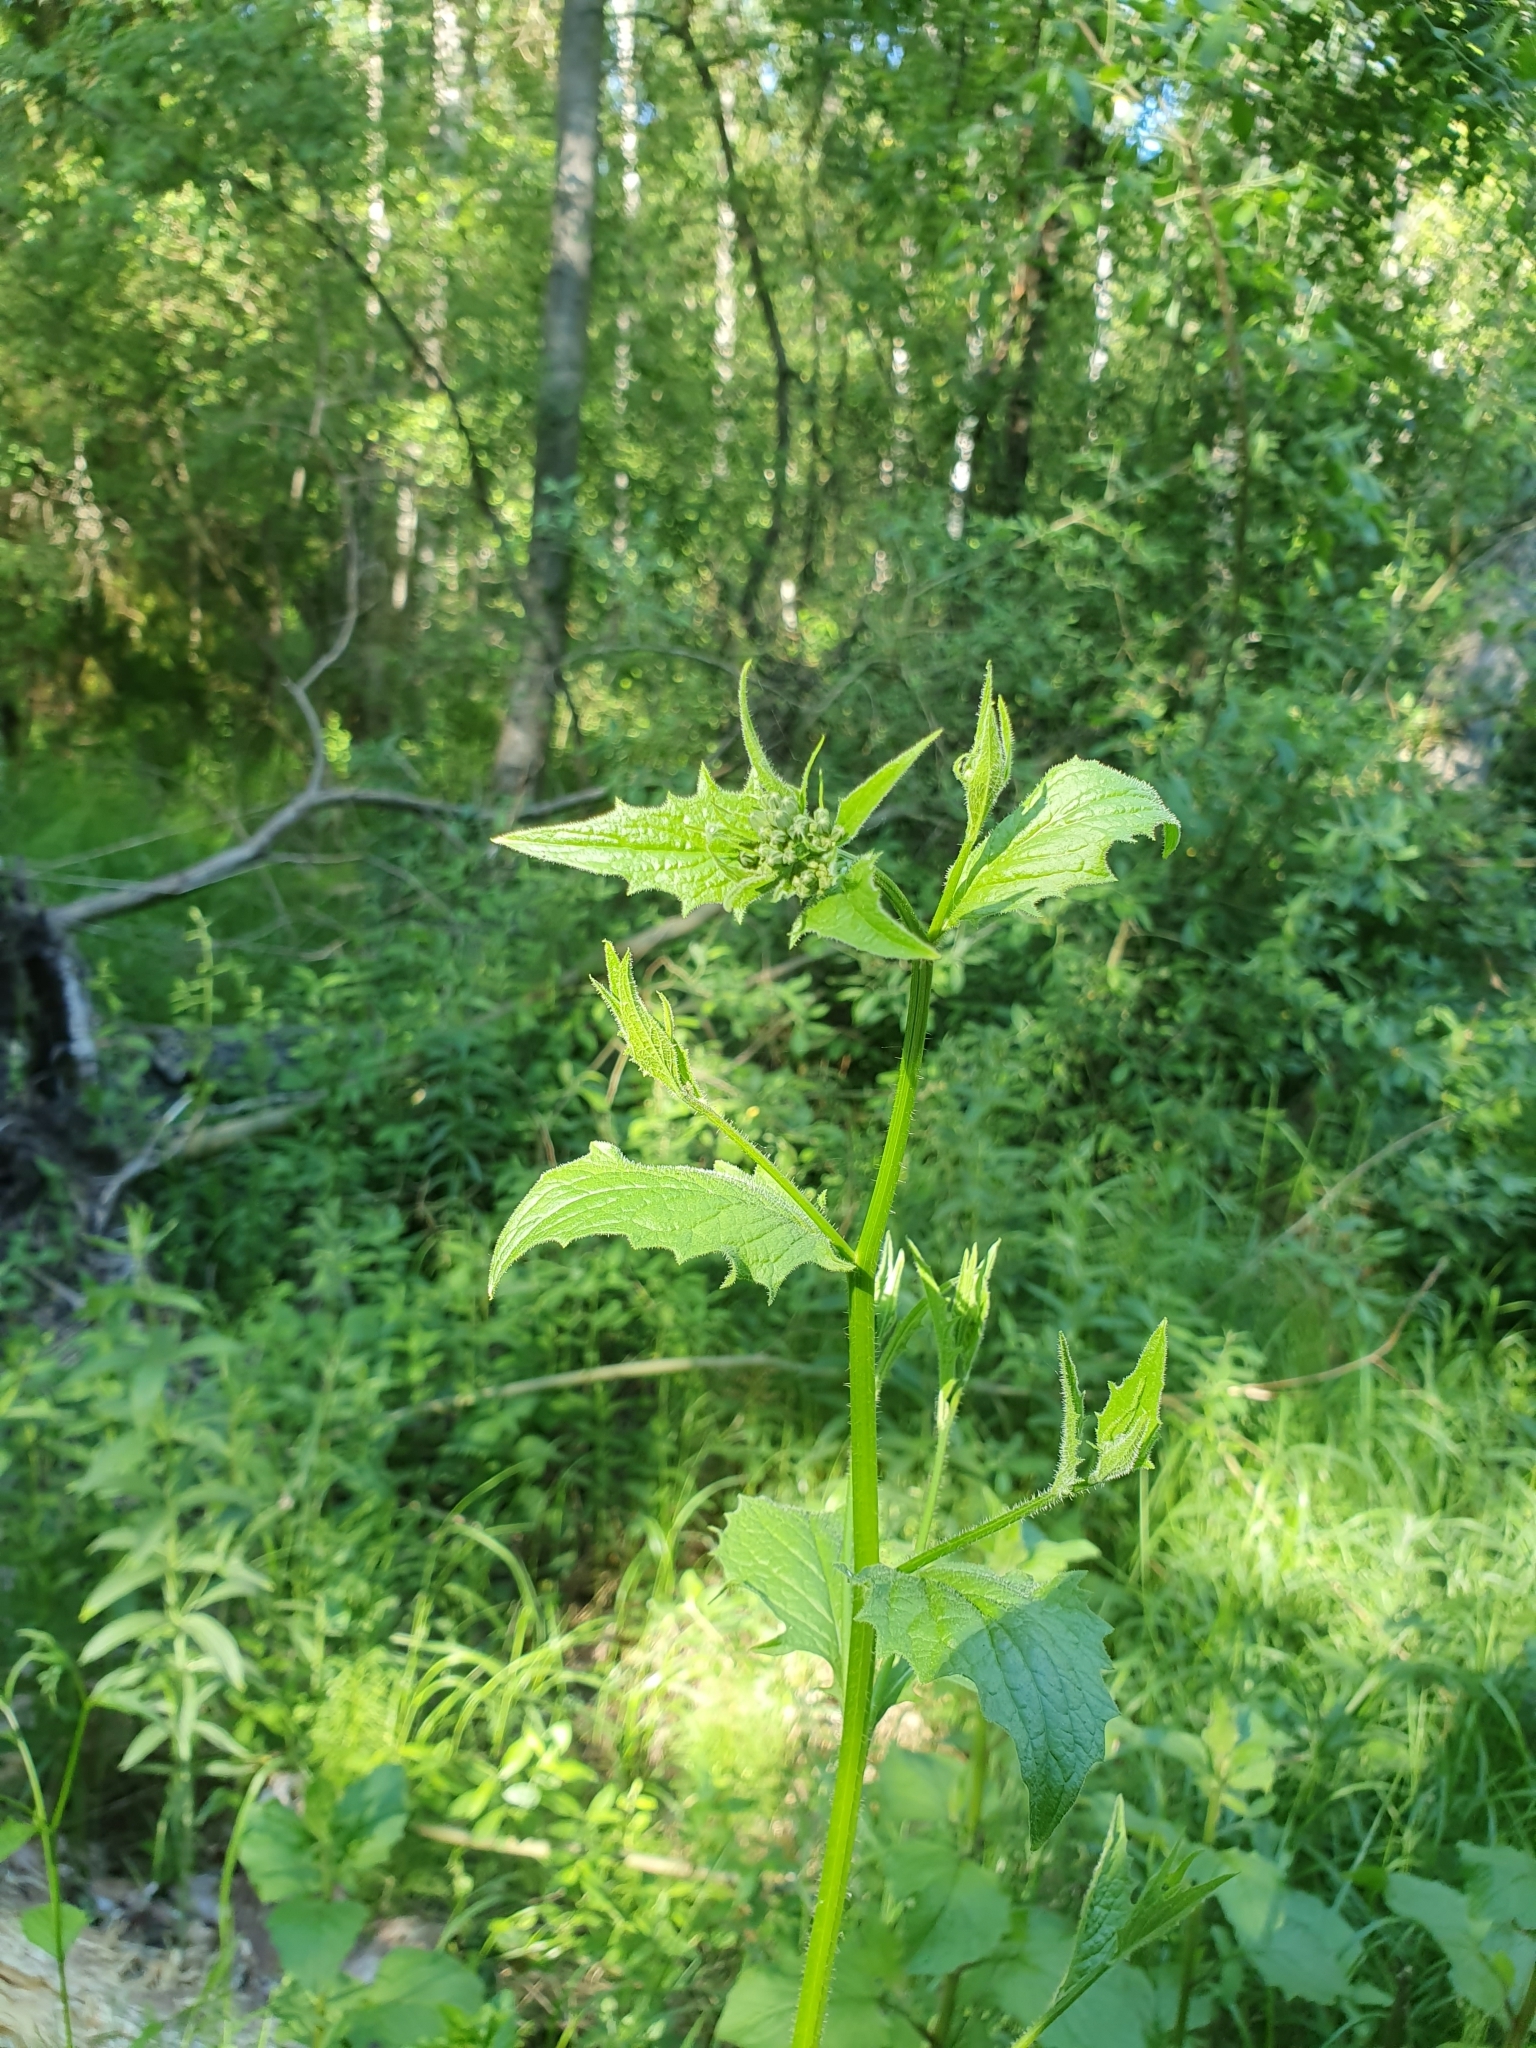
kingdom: Plantae
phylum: Tracheophyta
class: Magnoliopsida
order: Asterales
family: Asteraceae
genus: Lapsana
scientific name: Lapsana communis
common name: Nipplewort
